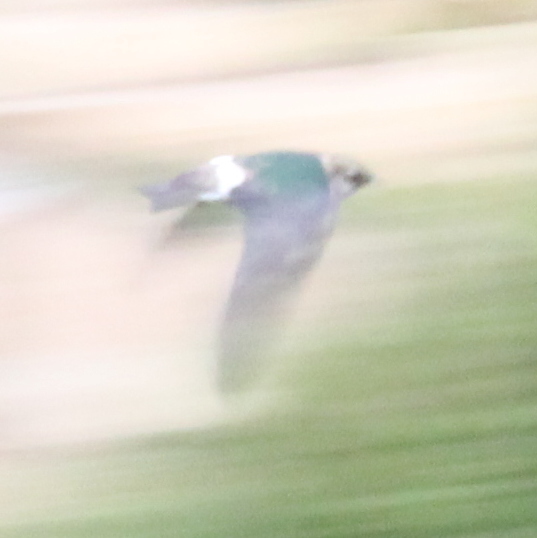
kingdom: Animalia
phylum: Chordata
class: Aves
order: Passeriformes
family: Hirundinidae
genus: Tachycineta
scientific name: Tachycineta thalassina
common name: Violet-green swallow
